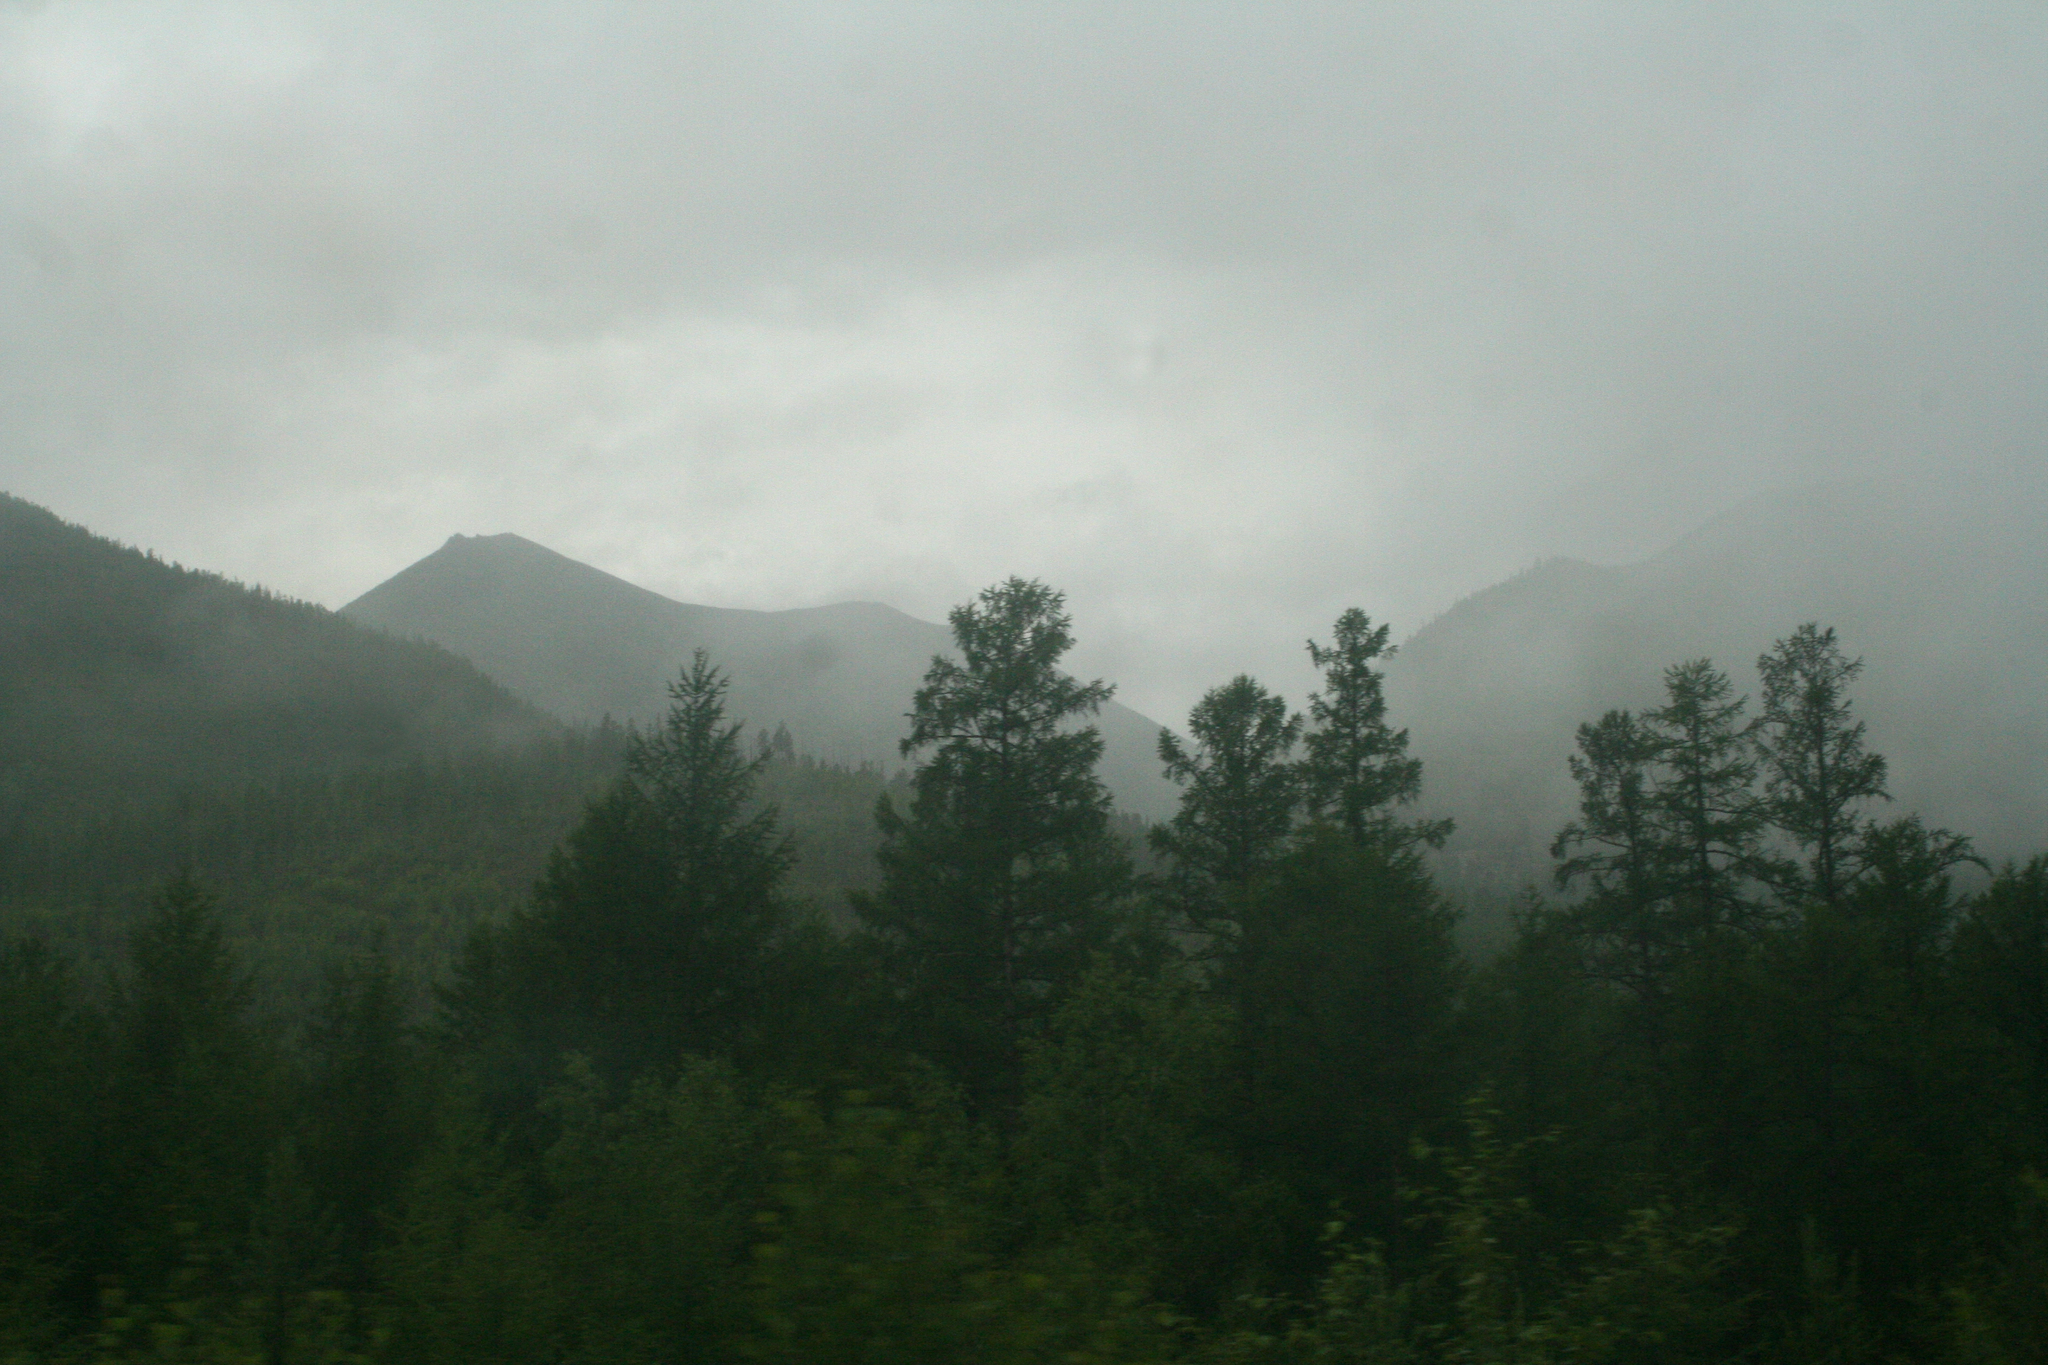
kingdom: Plantae
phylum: Tracheophyta
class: Pinopsida
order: Pinales
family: Pinaceae
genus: Larix
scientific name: Larix gmelinii
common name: Dahurian larch
